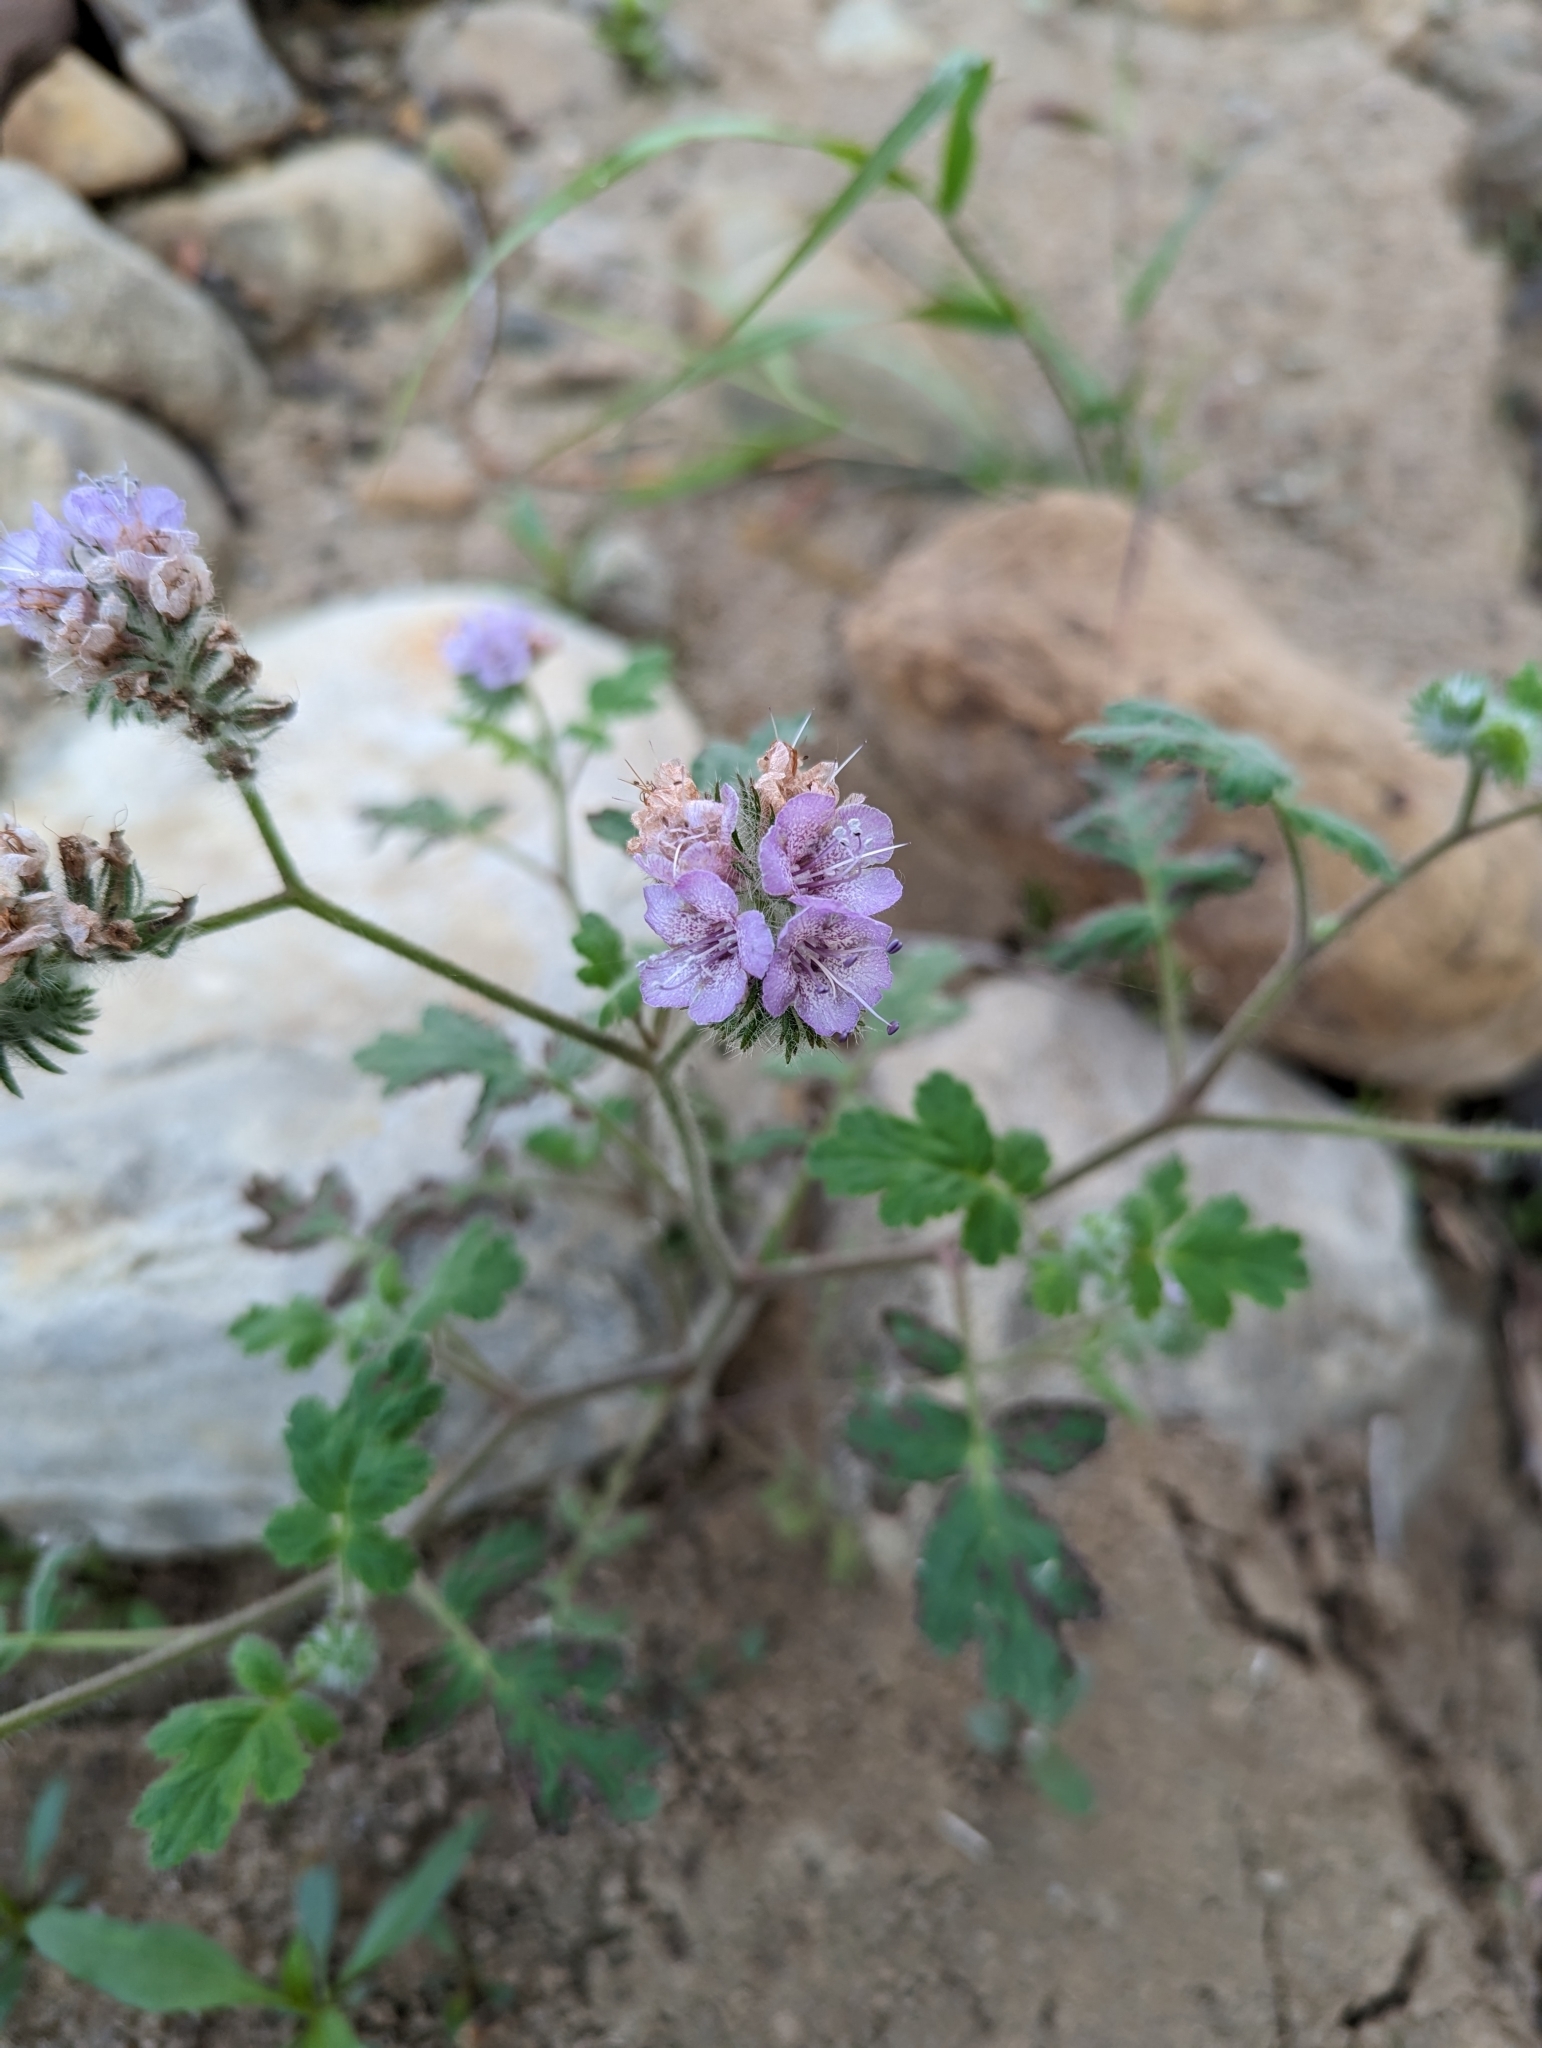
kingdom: Plantae
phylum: Tracheophyta
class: Magnoliopsida
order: Boraginales
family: Hydrophyllaceae
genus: Phacelia
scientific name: Phacelia cicutaria
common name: Caterpillar phacelia
